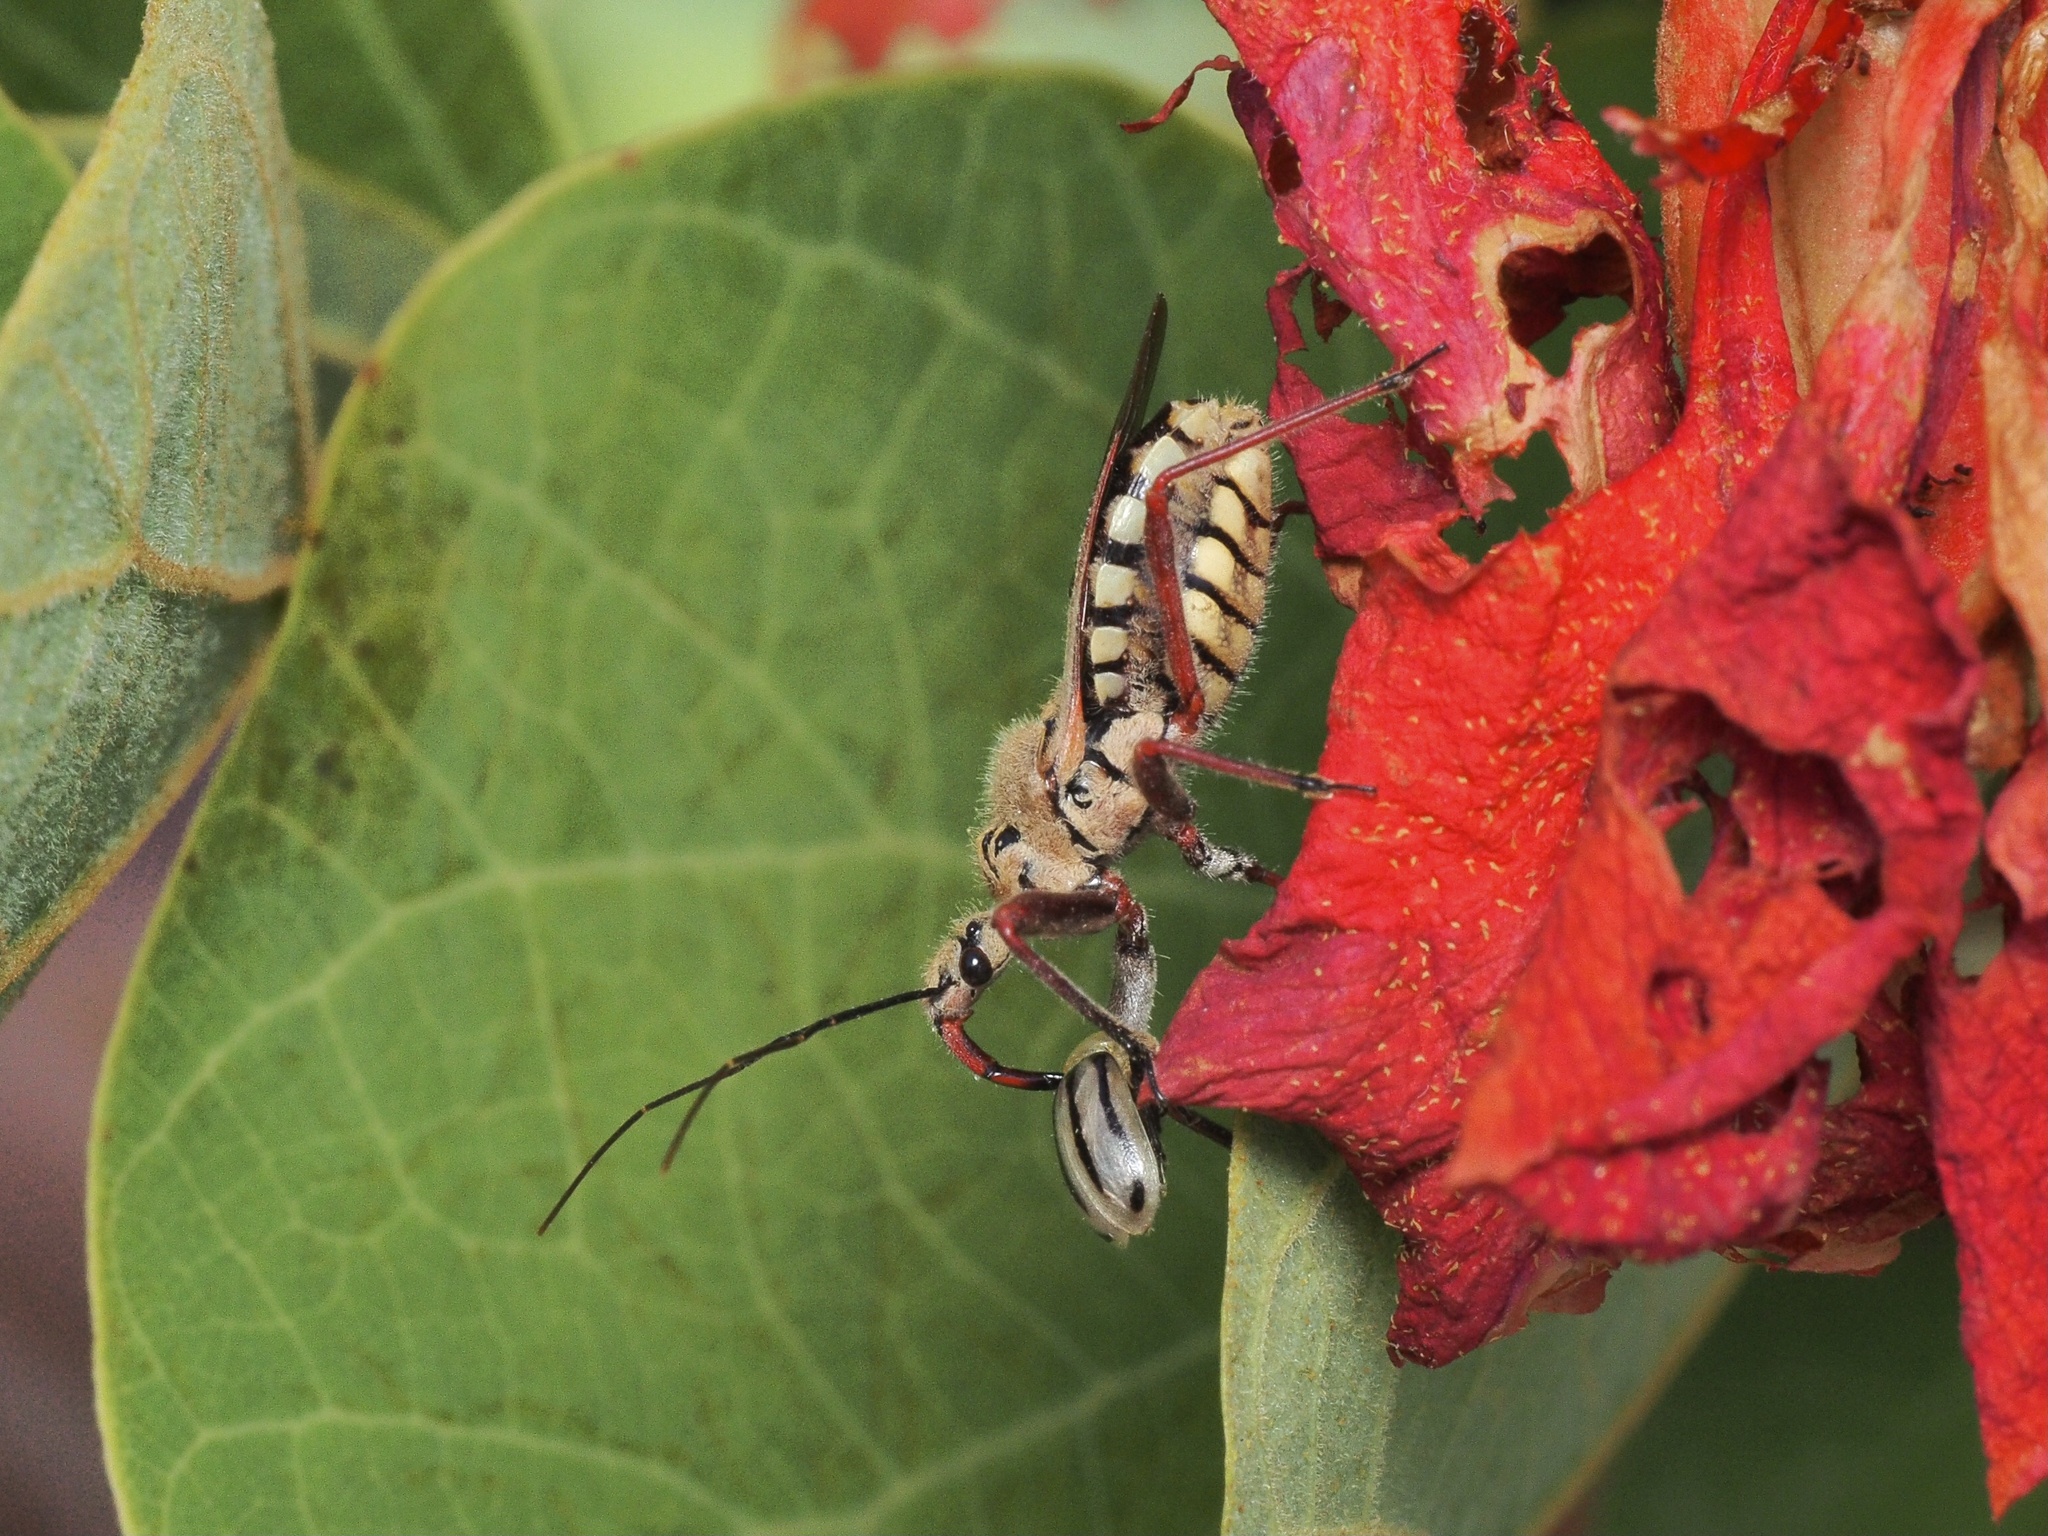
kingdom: Animalia
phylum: Arthropoda
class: Insecta
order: Hemiptera
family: Reduviidae
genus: Rhynocoris
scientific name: Rhynocoris neavei
